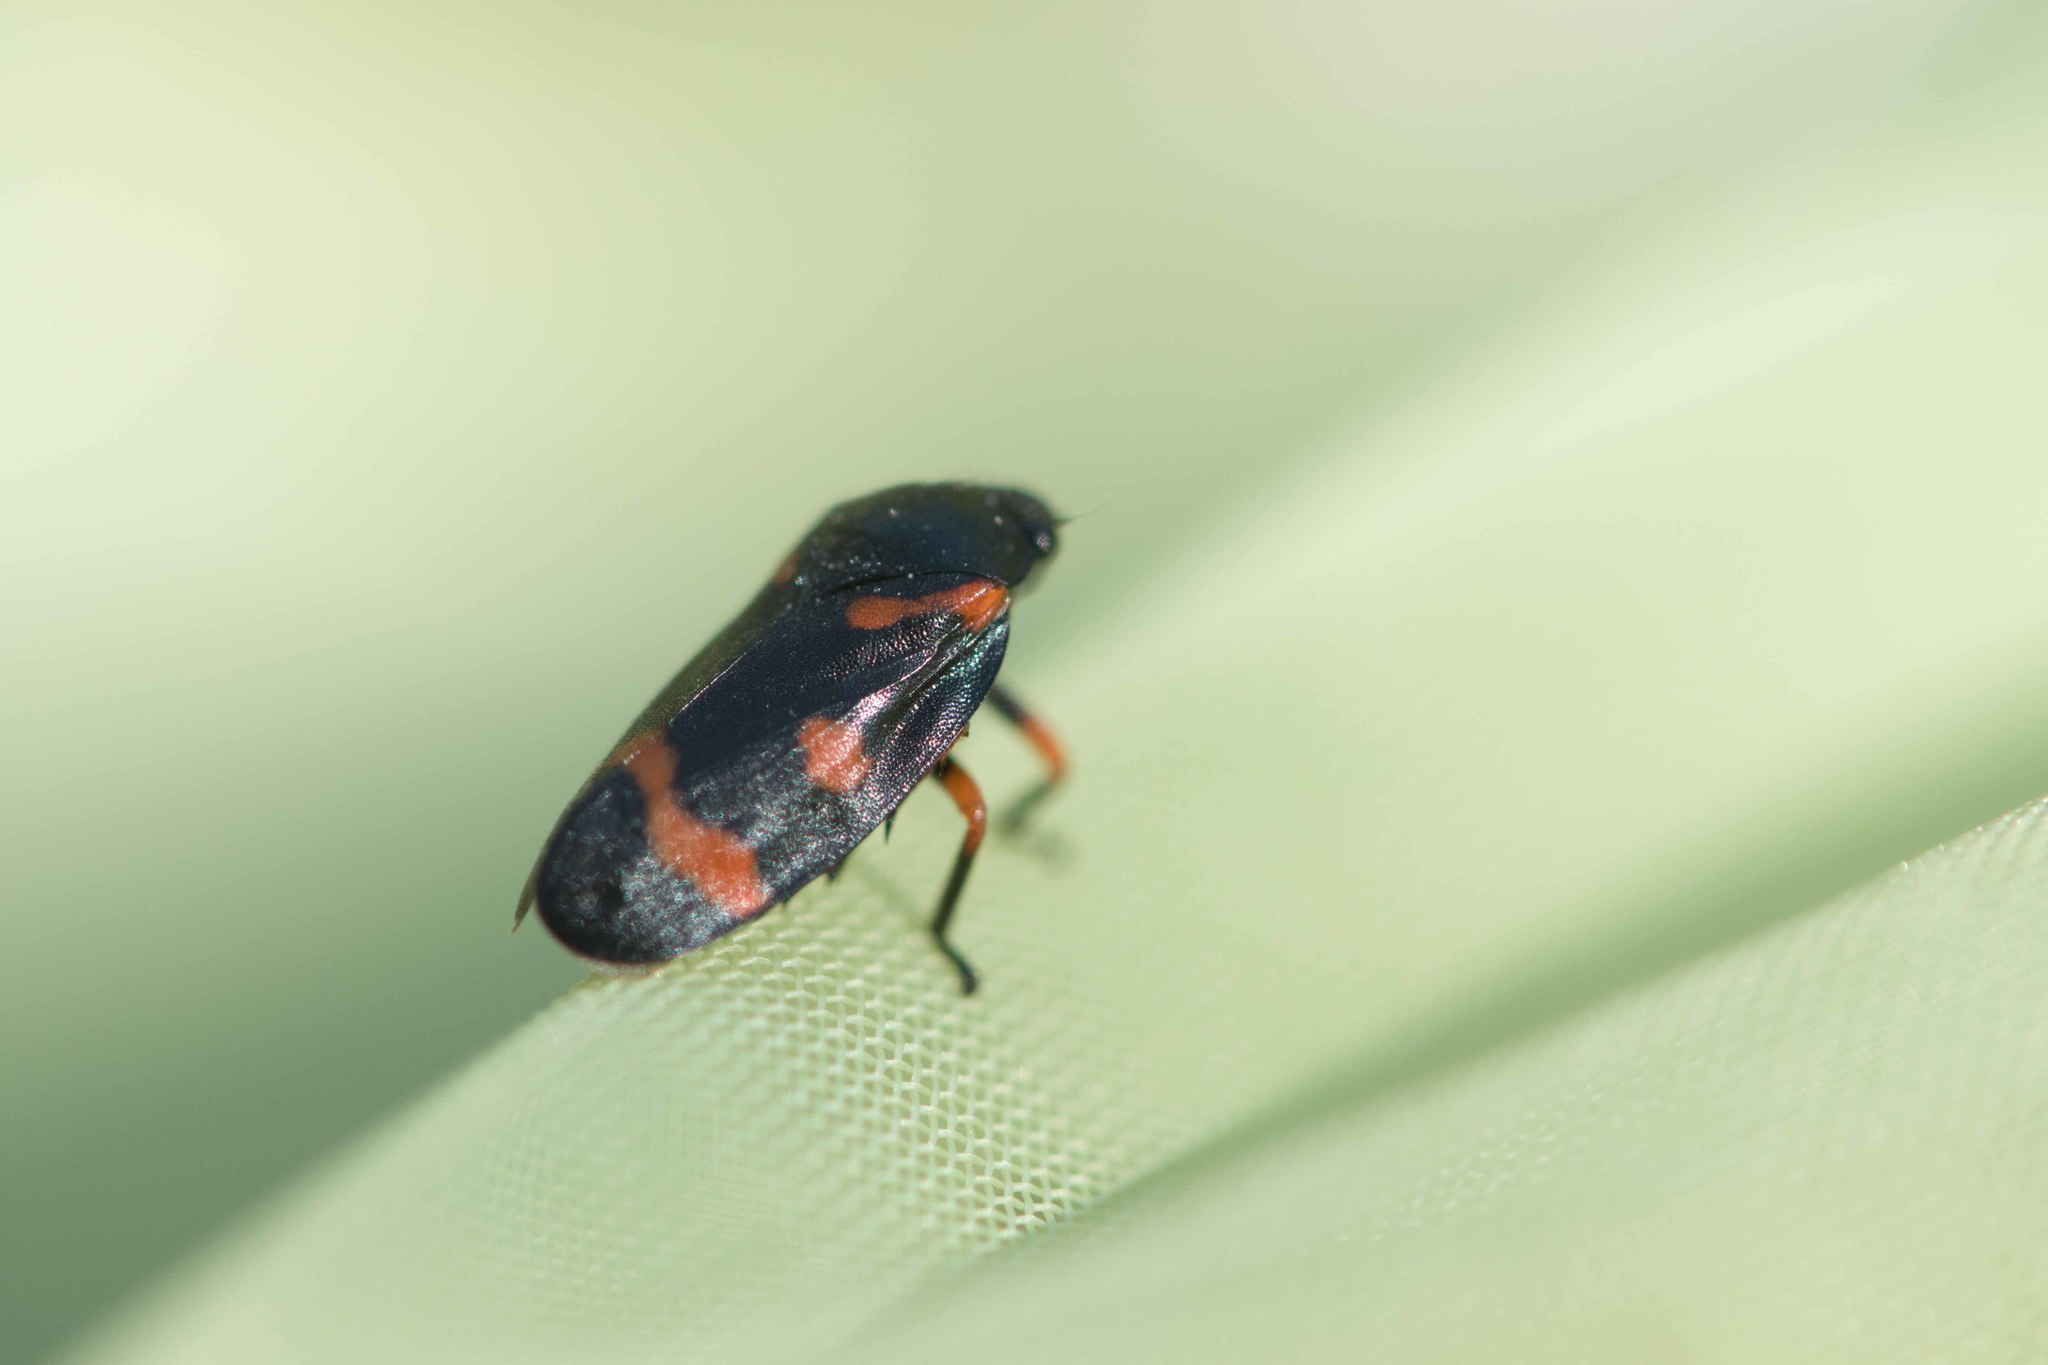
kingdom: Animalia
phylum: Arthropoda
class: Insecta
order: Hemiptera
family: Cercopidae
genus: Cercopis
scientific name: Cercopis intermedia
